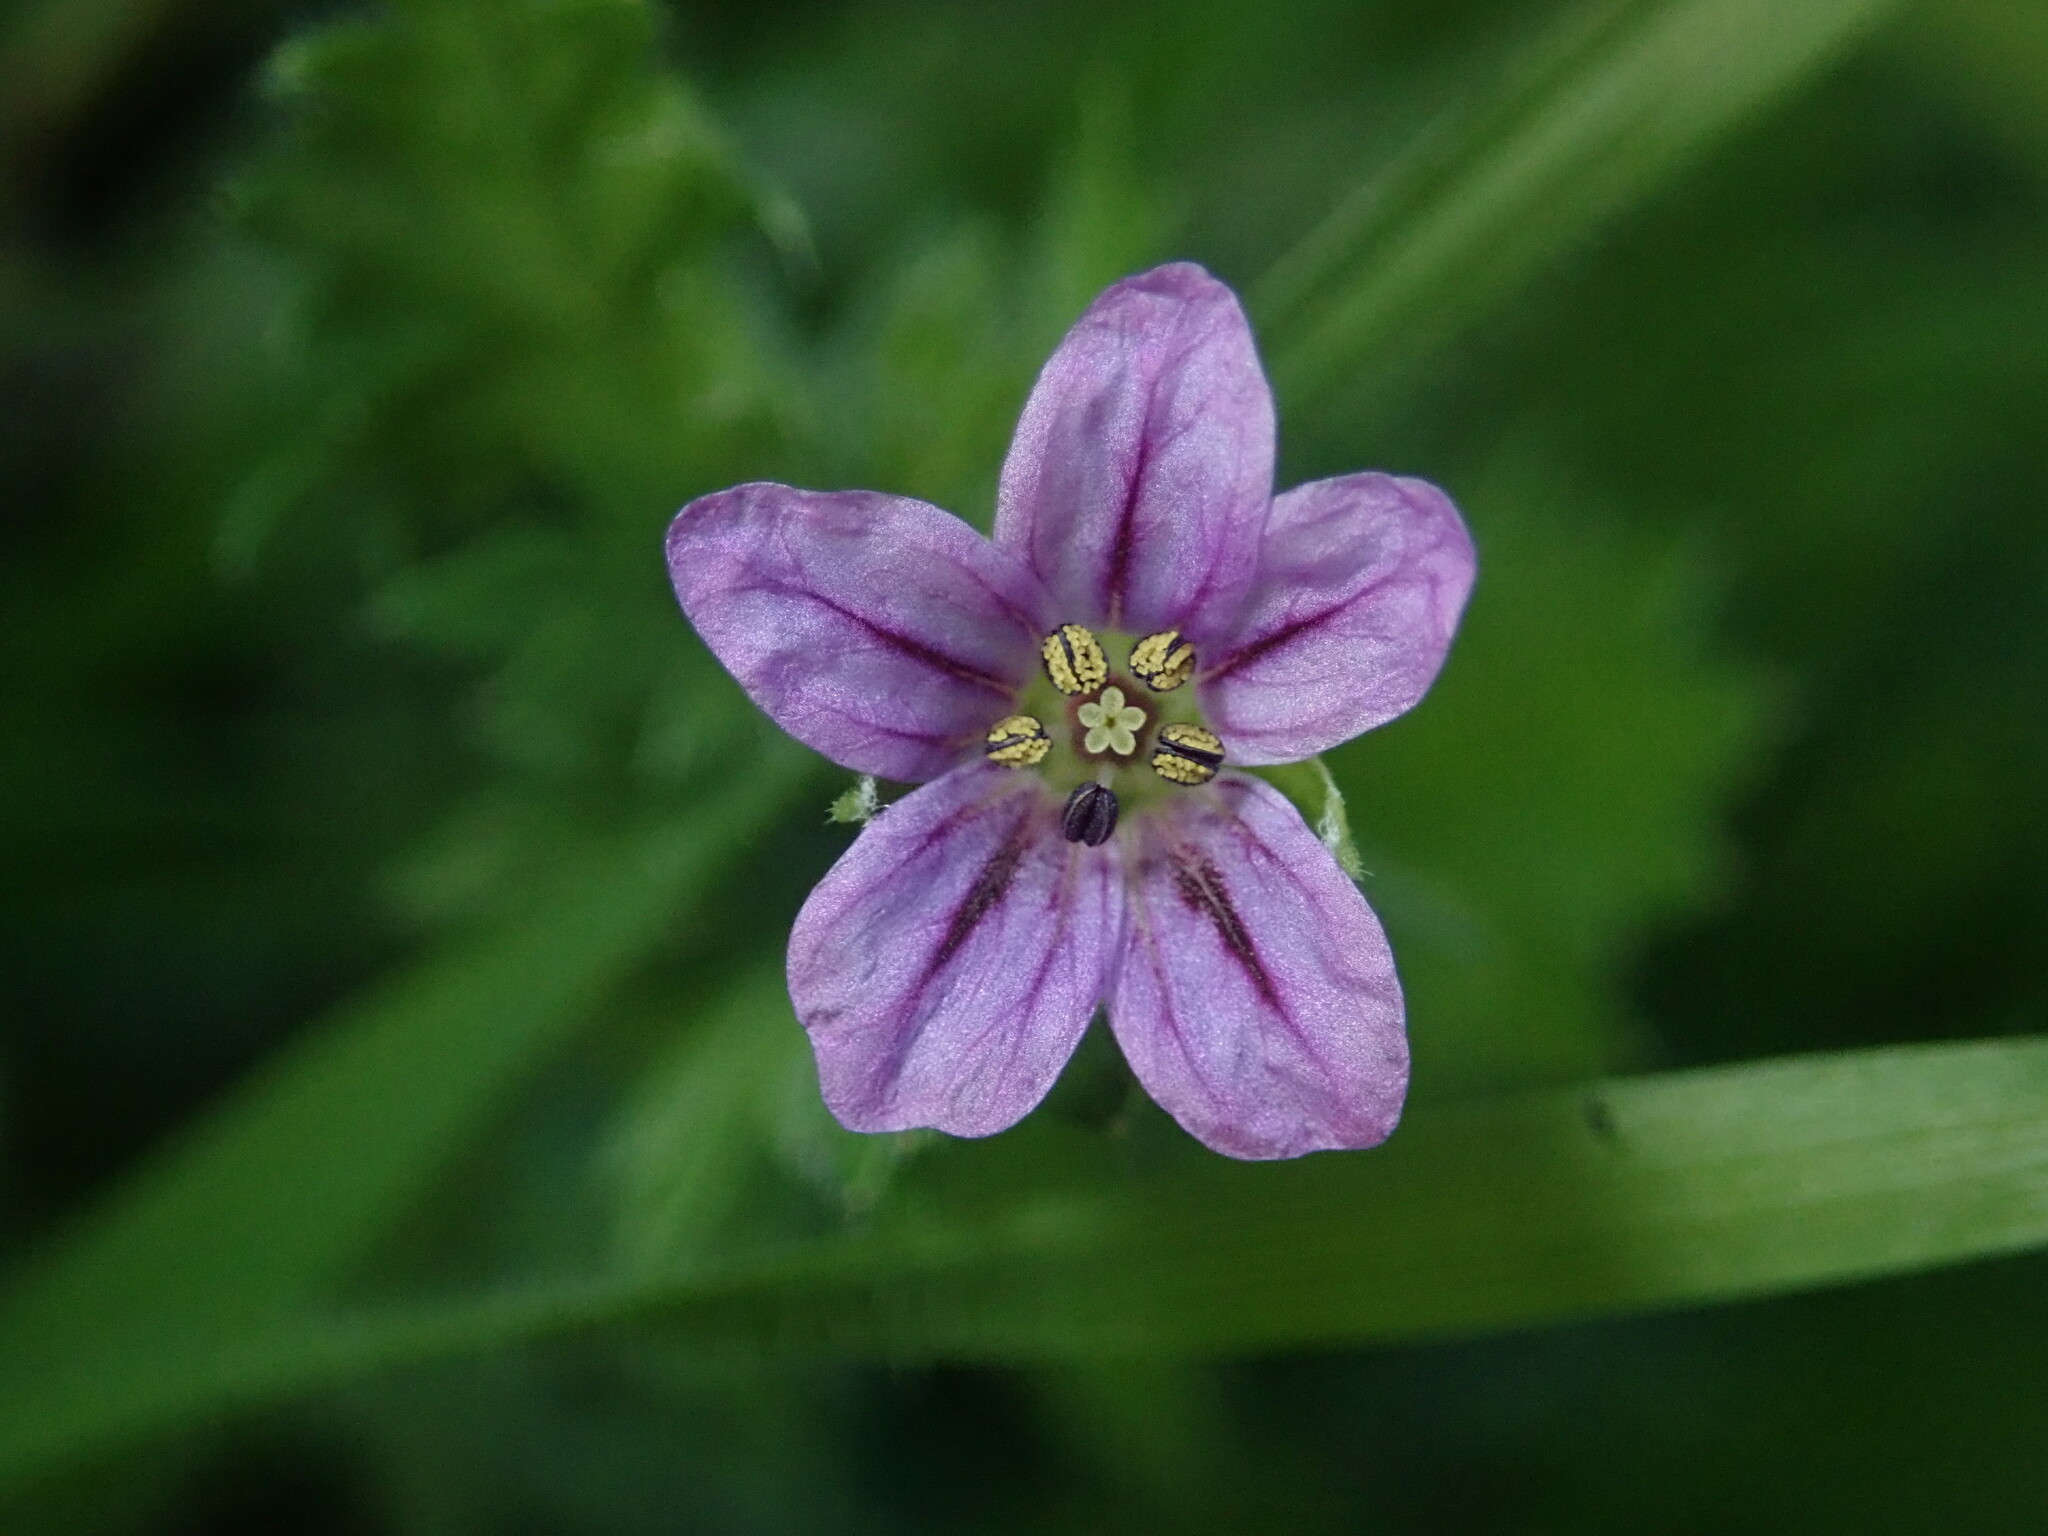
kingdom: Plantae
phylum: Tracheophyta
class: Magnoliopsida
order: Geraniales
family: Geraniaceae
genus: Erodium
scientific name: Erodium brachycarpum
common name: Hairy-pitted stork's-bill
